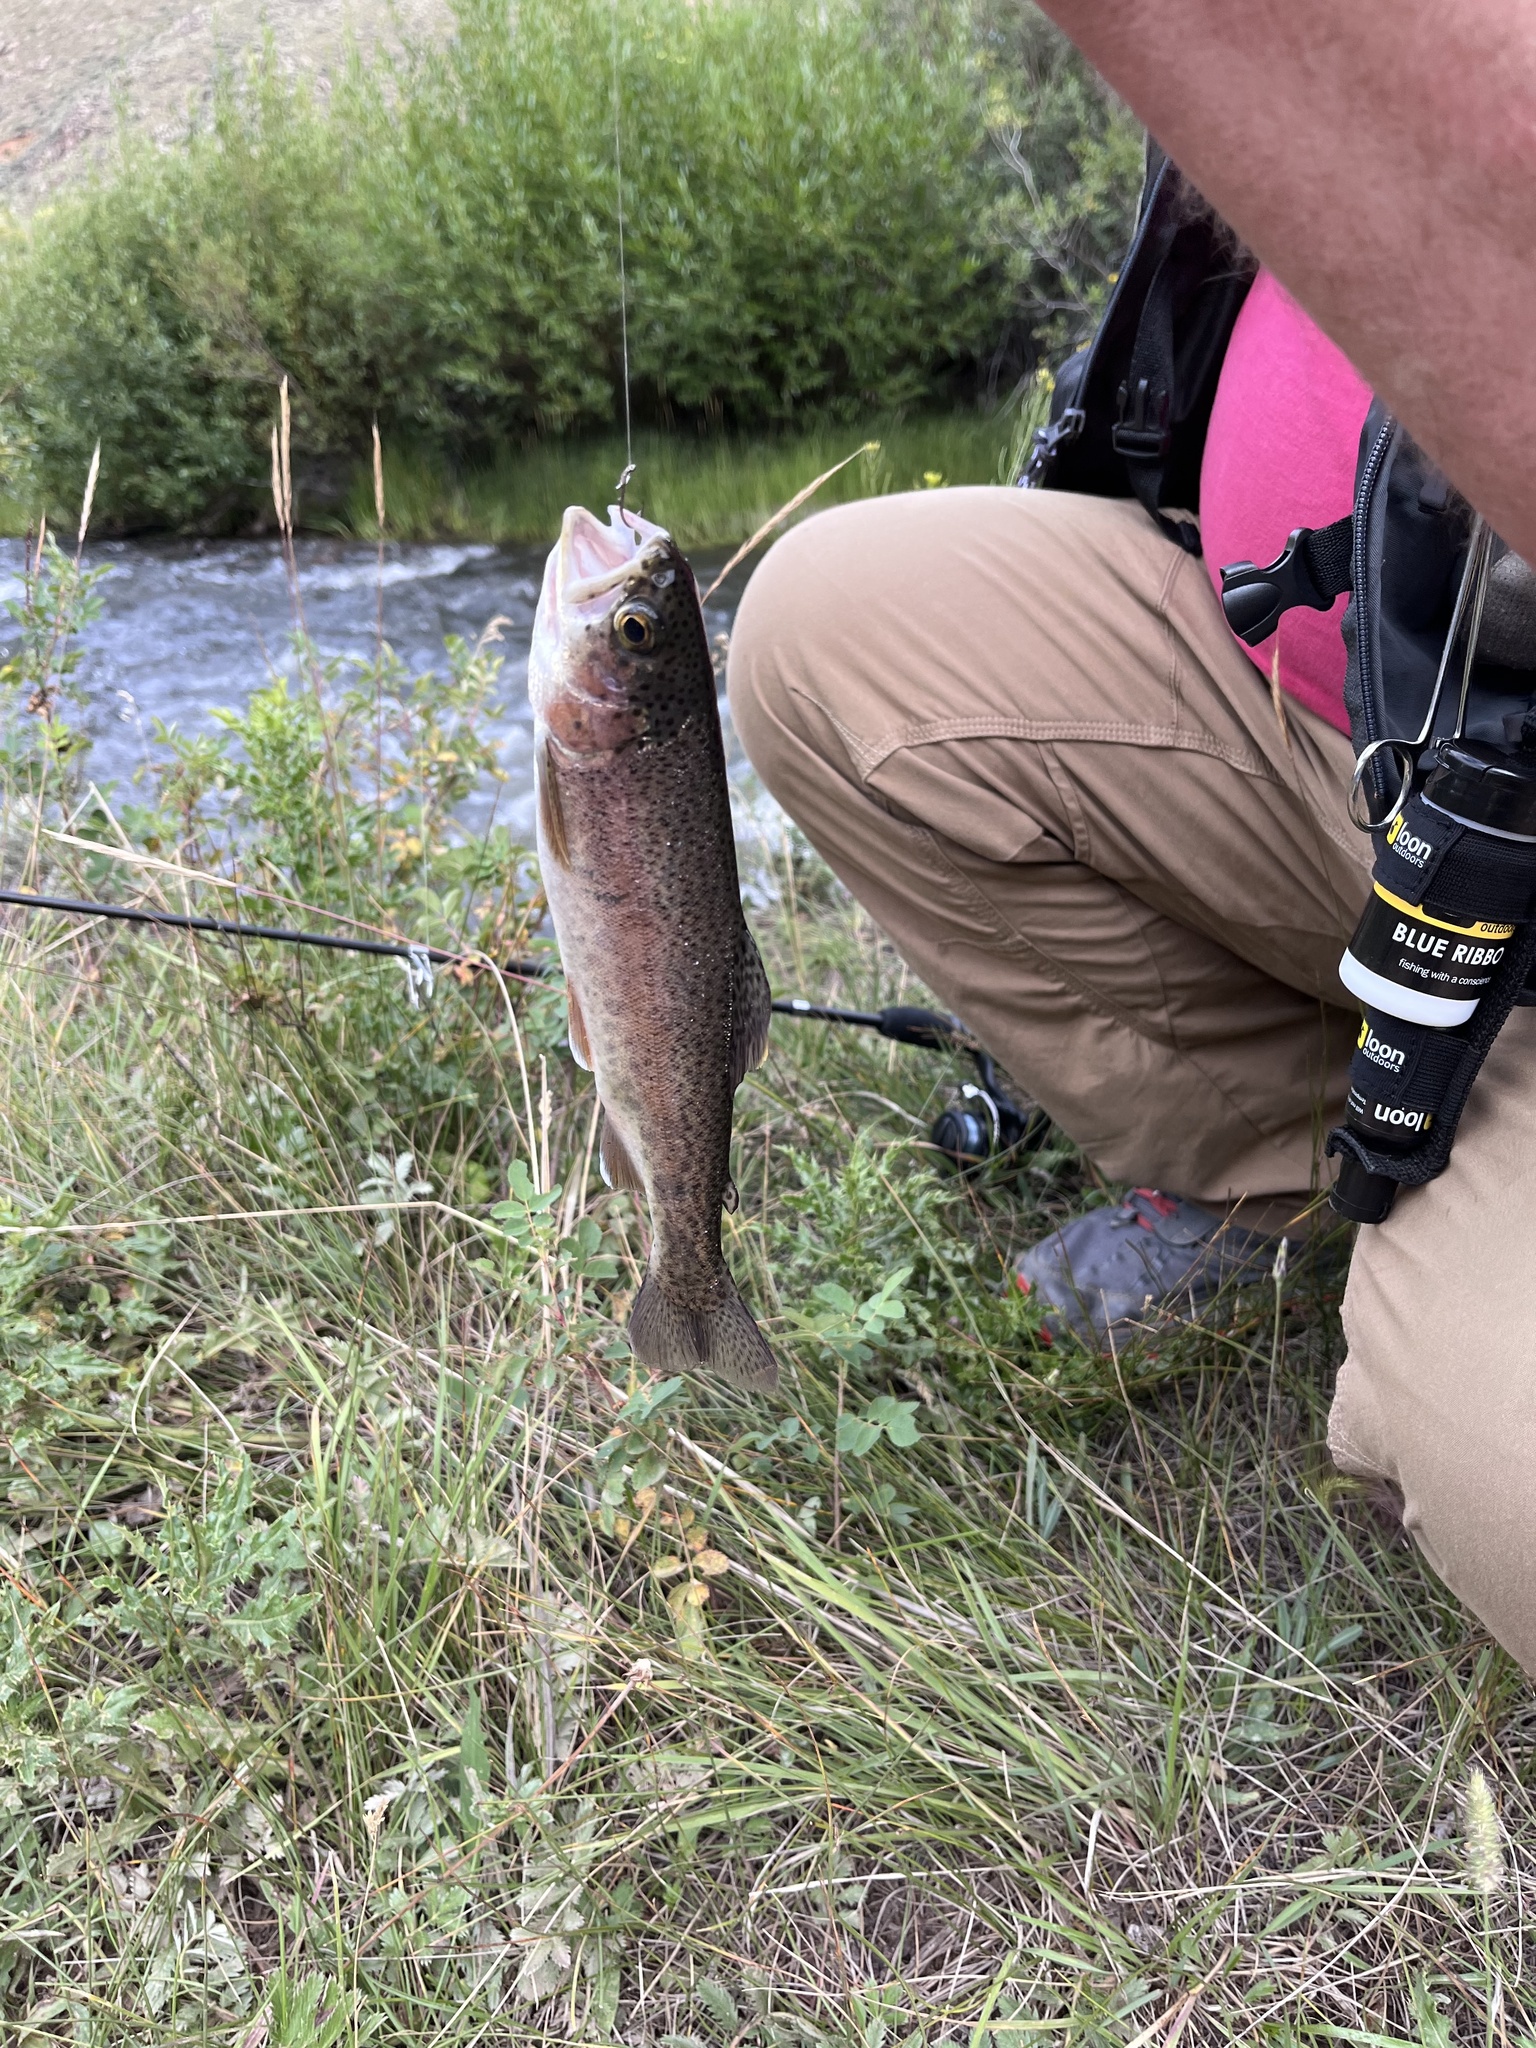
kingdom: Animalia
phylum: Chordata
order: Salmoniformes
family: Salmonidae
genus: Oncorhynchus
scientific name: Oncorhynchus mykiss
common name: Rainbow trout
